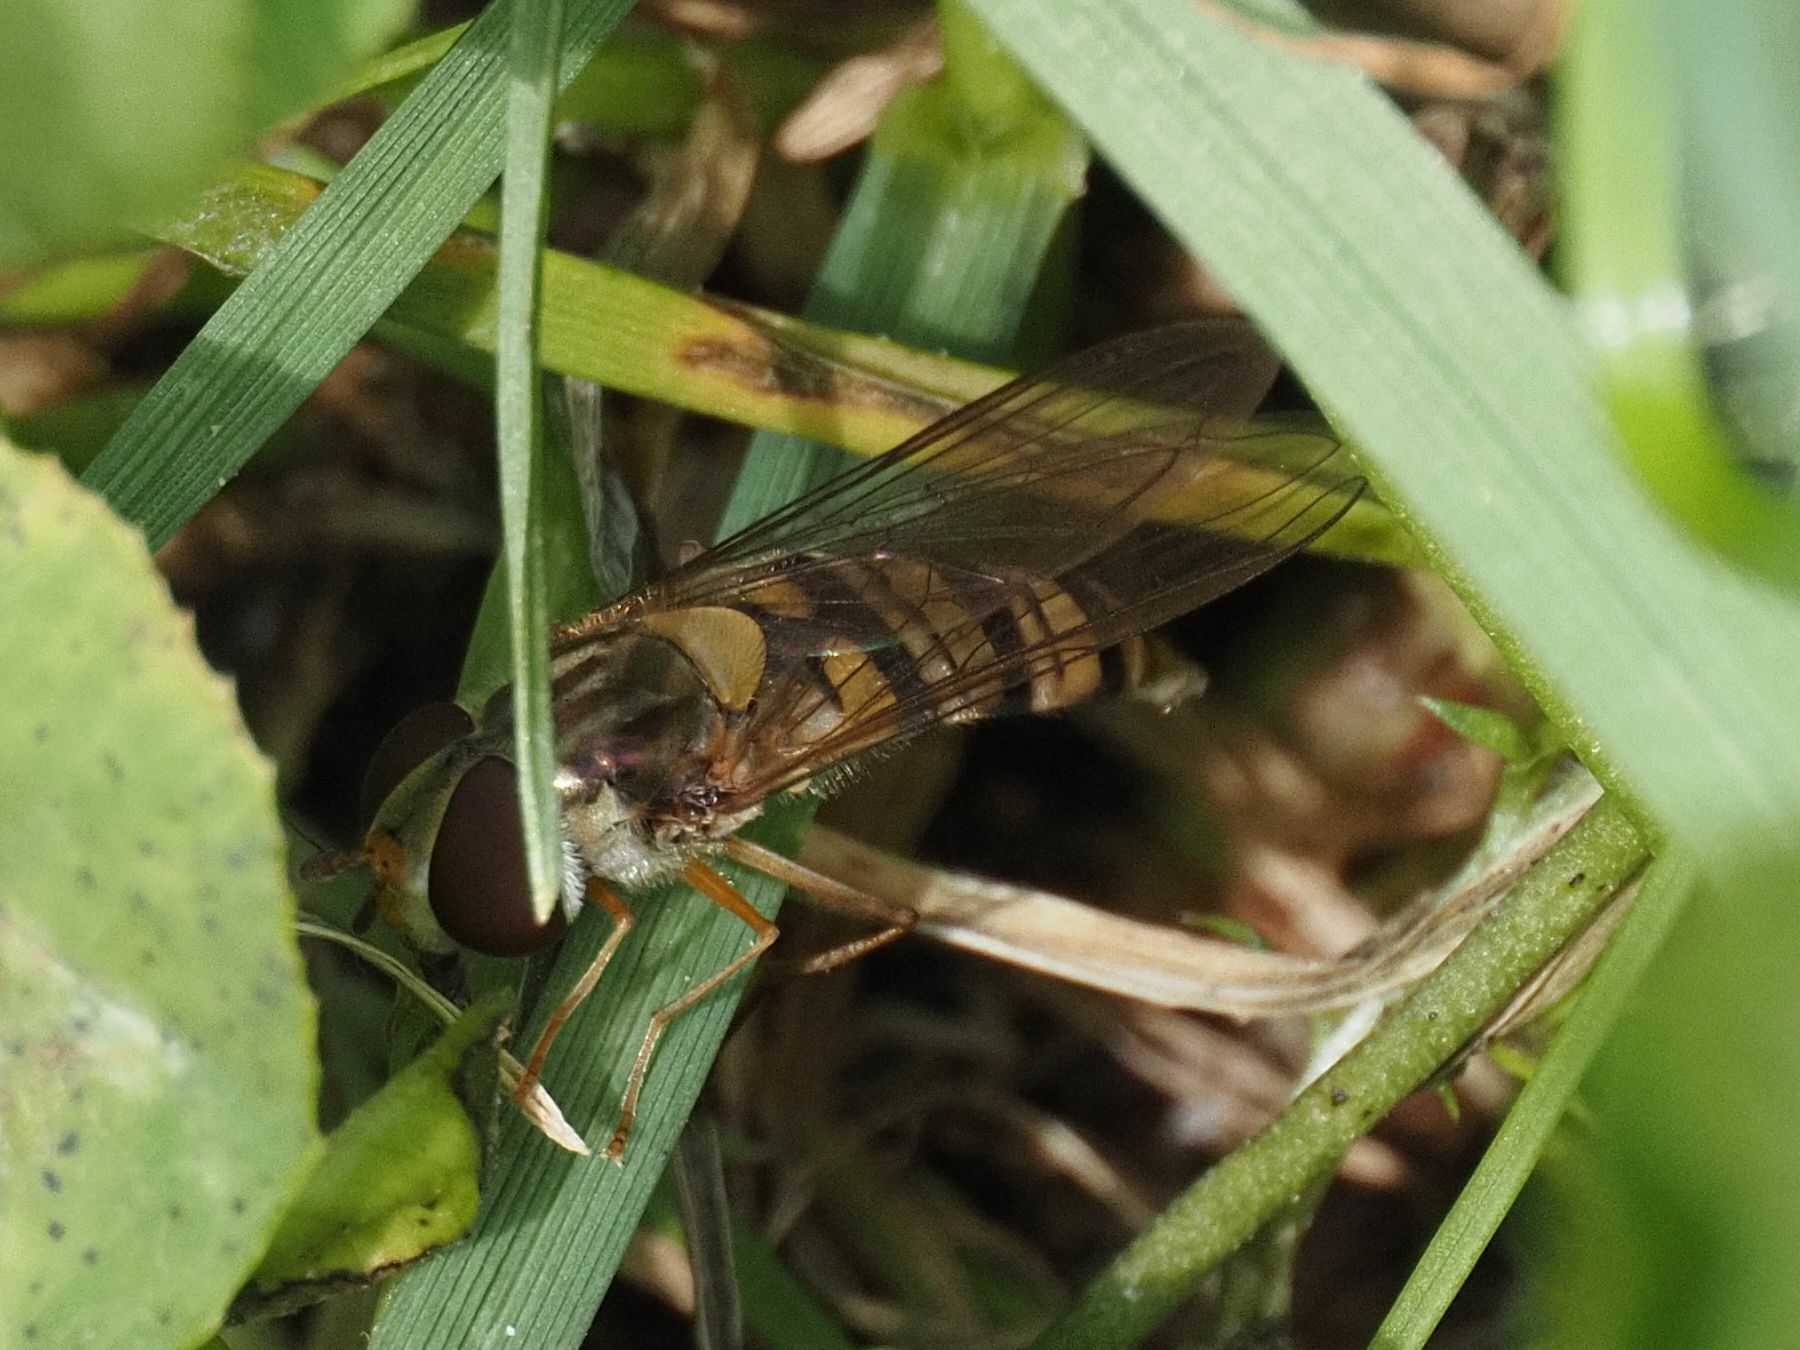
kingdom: Animalia
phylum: Arthropoda
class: Insecta
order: Diptera
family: Syrphidae
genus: Episyrphus
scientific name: Episyrphus balteatus
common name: Marmalade hoverfly
